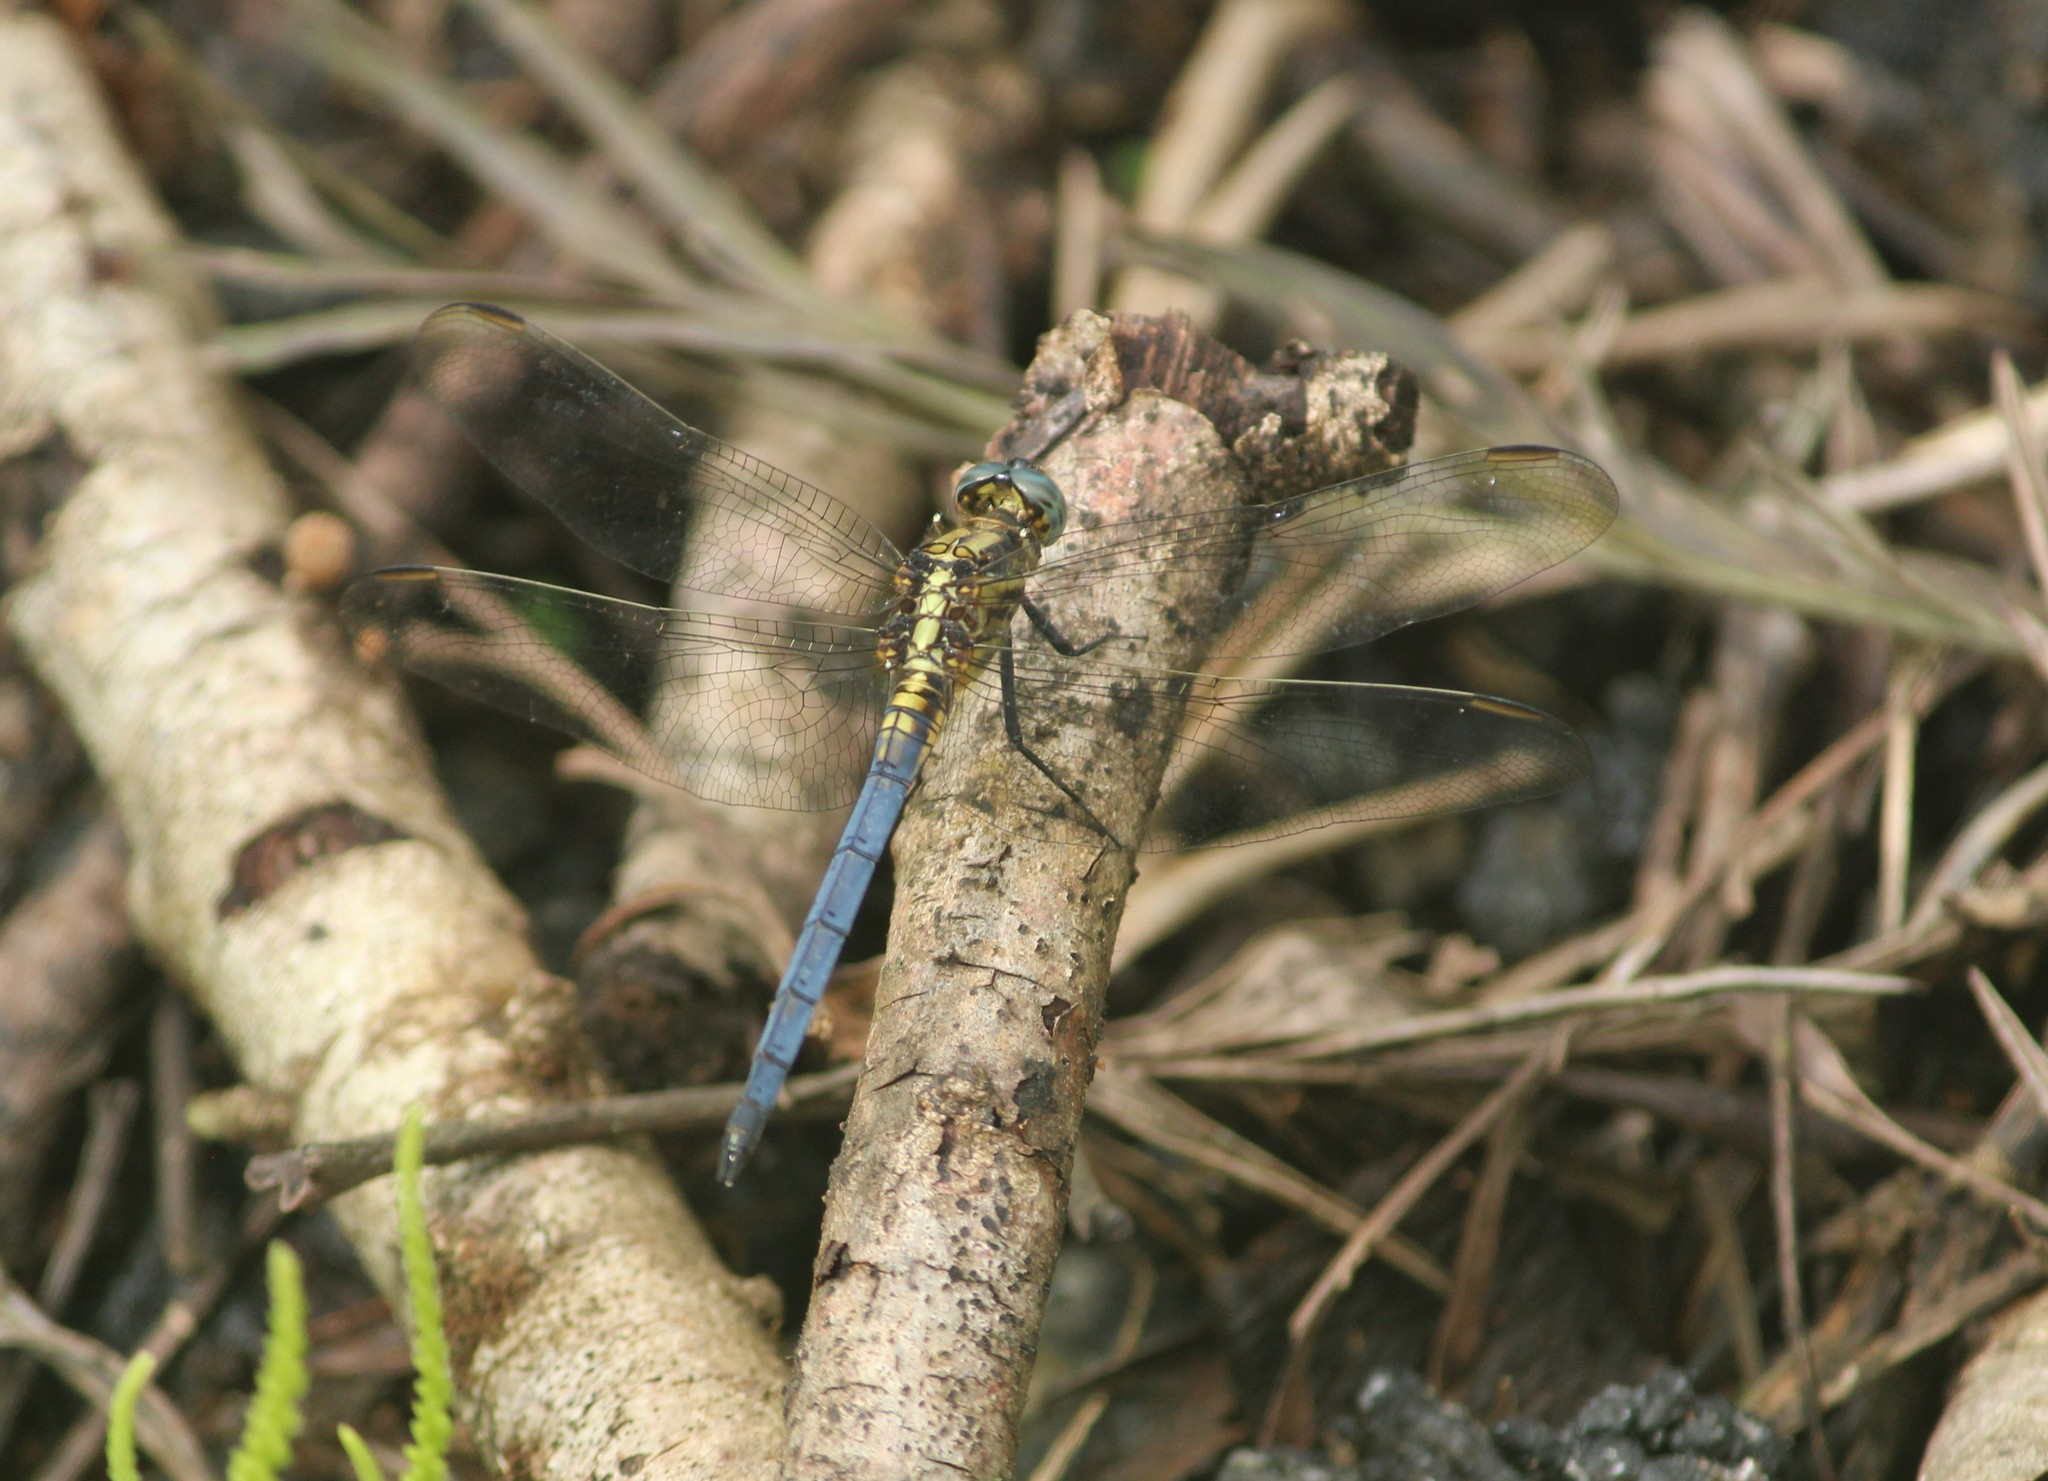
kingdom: Animalia
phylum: Arthropoda
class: Insecta
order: Odonata
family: Libellulidae
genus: Orthetrum
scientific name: Orthetrum luzonicum
